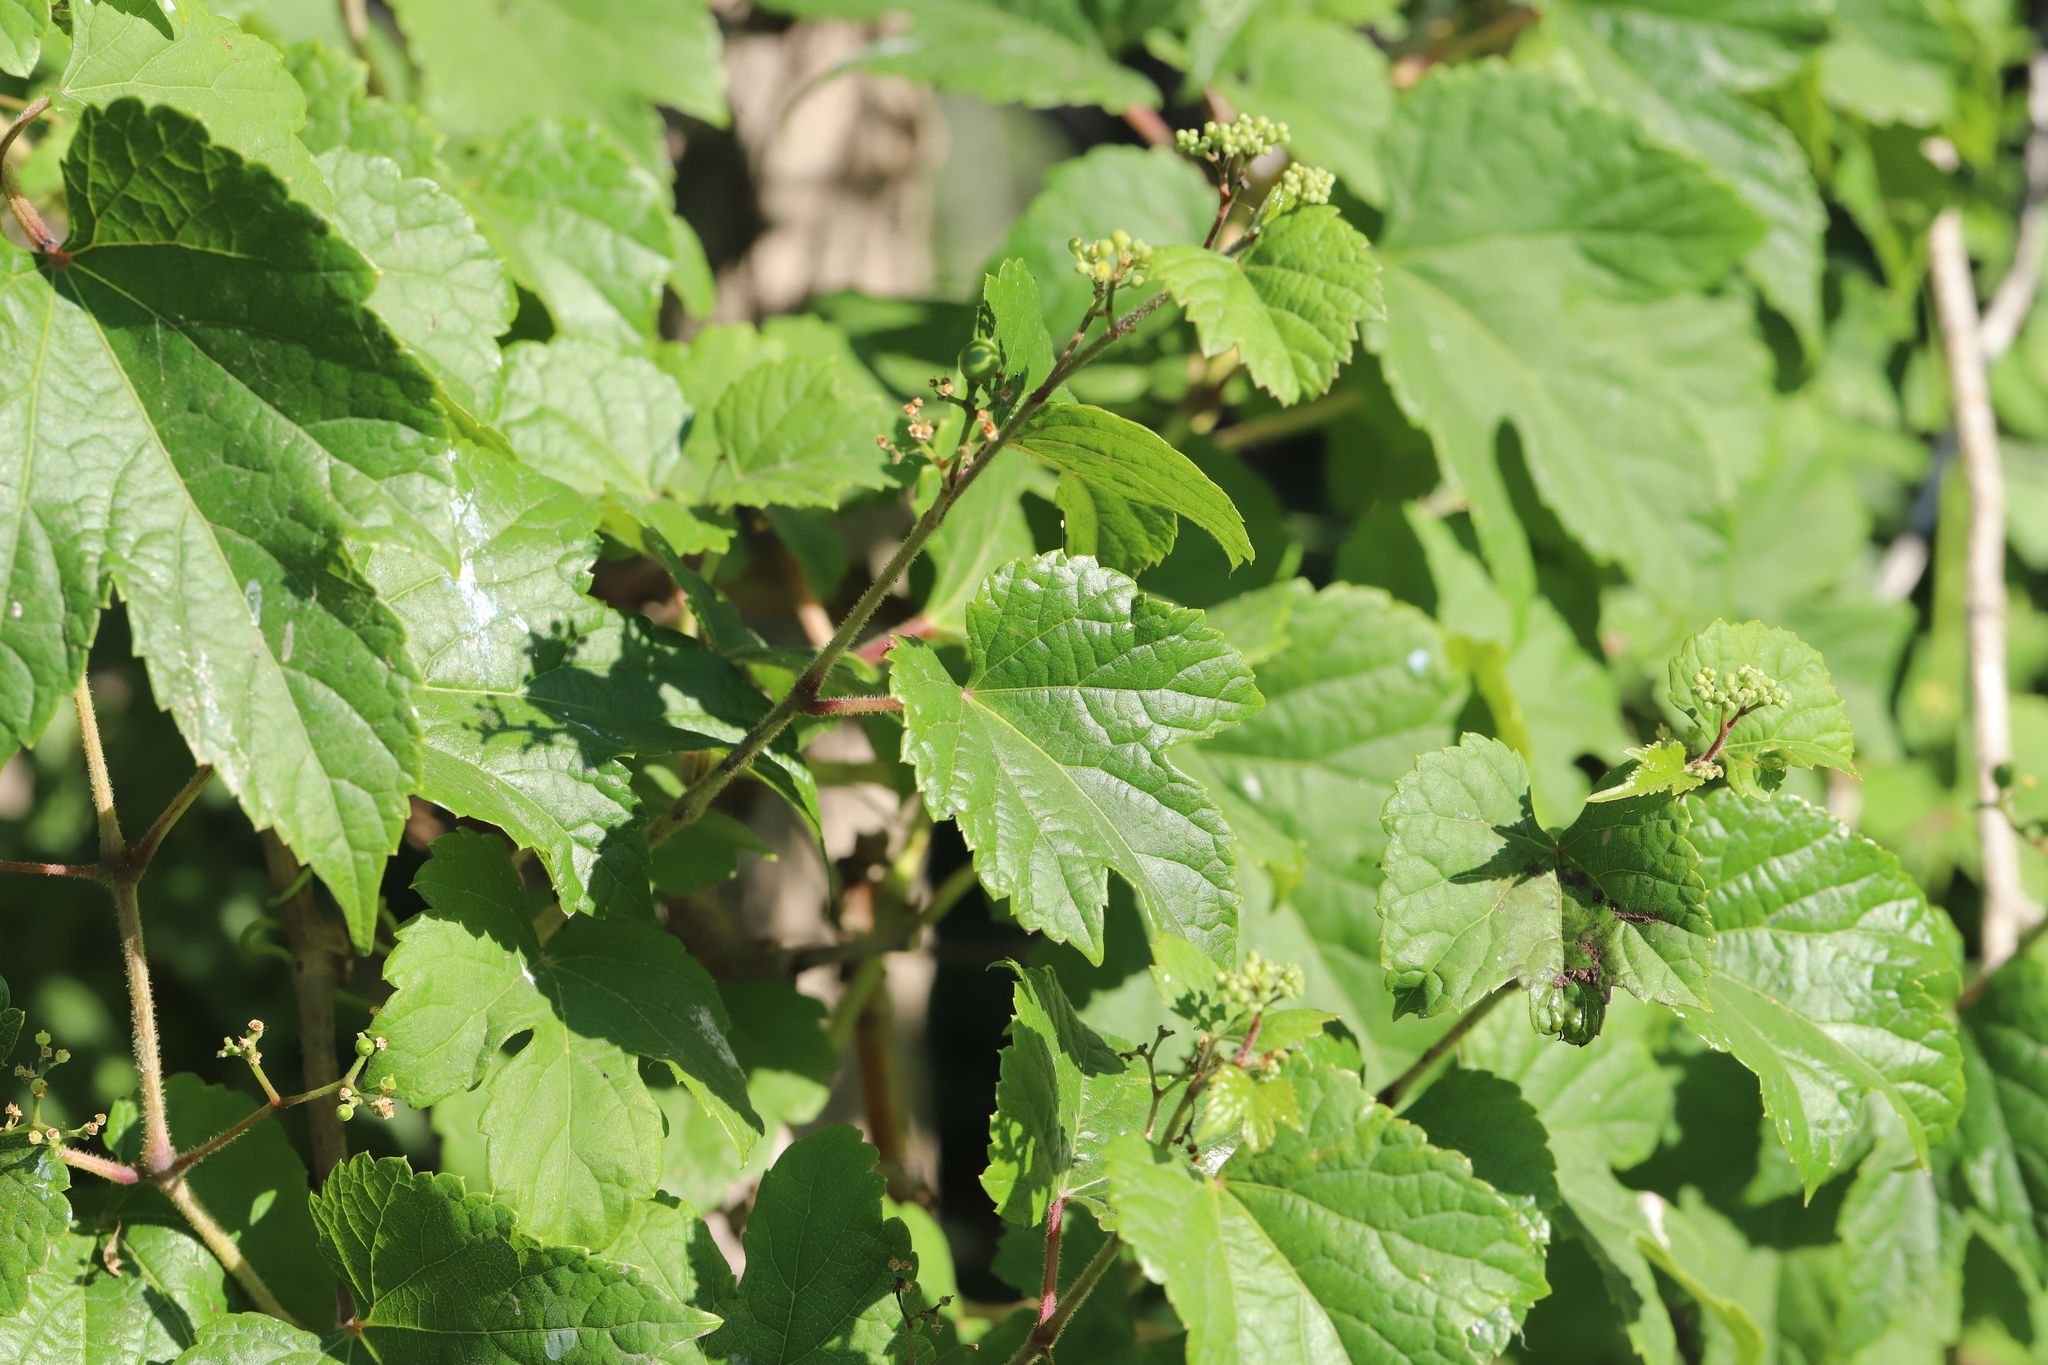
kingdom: Plantae
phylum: Tracheophyta
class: Magnoliopsida
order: Vitales
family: Vitaceae
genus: Ampelopsis
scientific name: Ampelopsis glandulosa
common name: Amur peppervine
